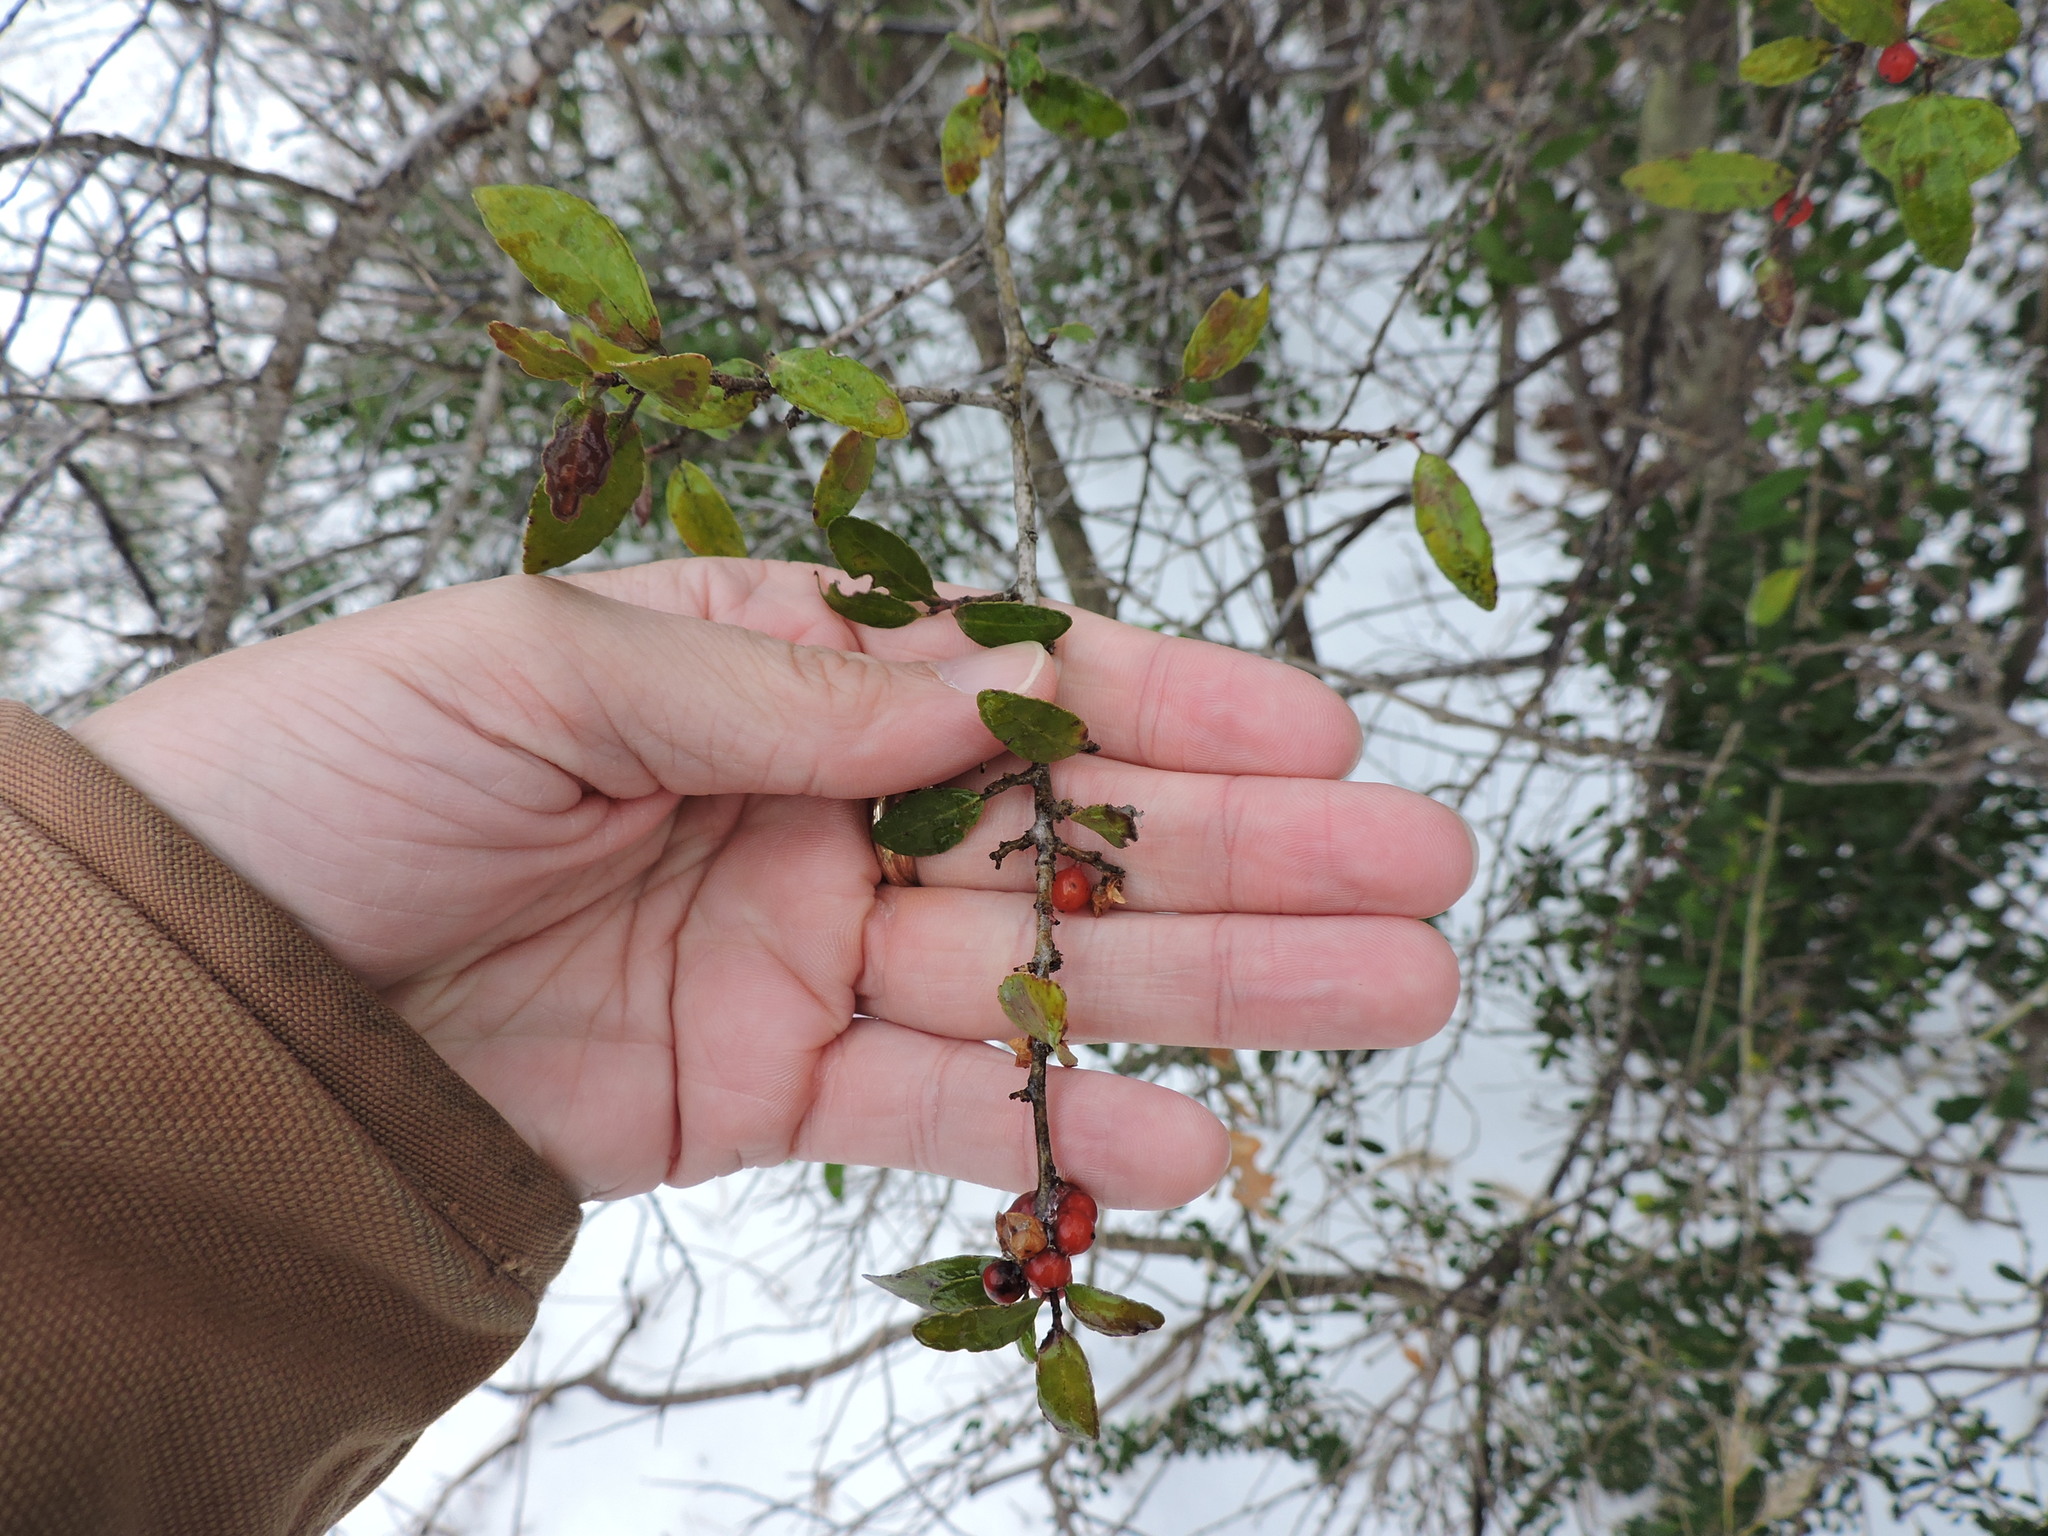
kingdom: Plantae
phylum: Tracheophyta
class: Magnoliopsida
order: Aquifoliales
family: Aquifoliaceae
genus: Ilex
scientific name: Ilex decidua
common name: Possum-haw
